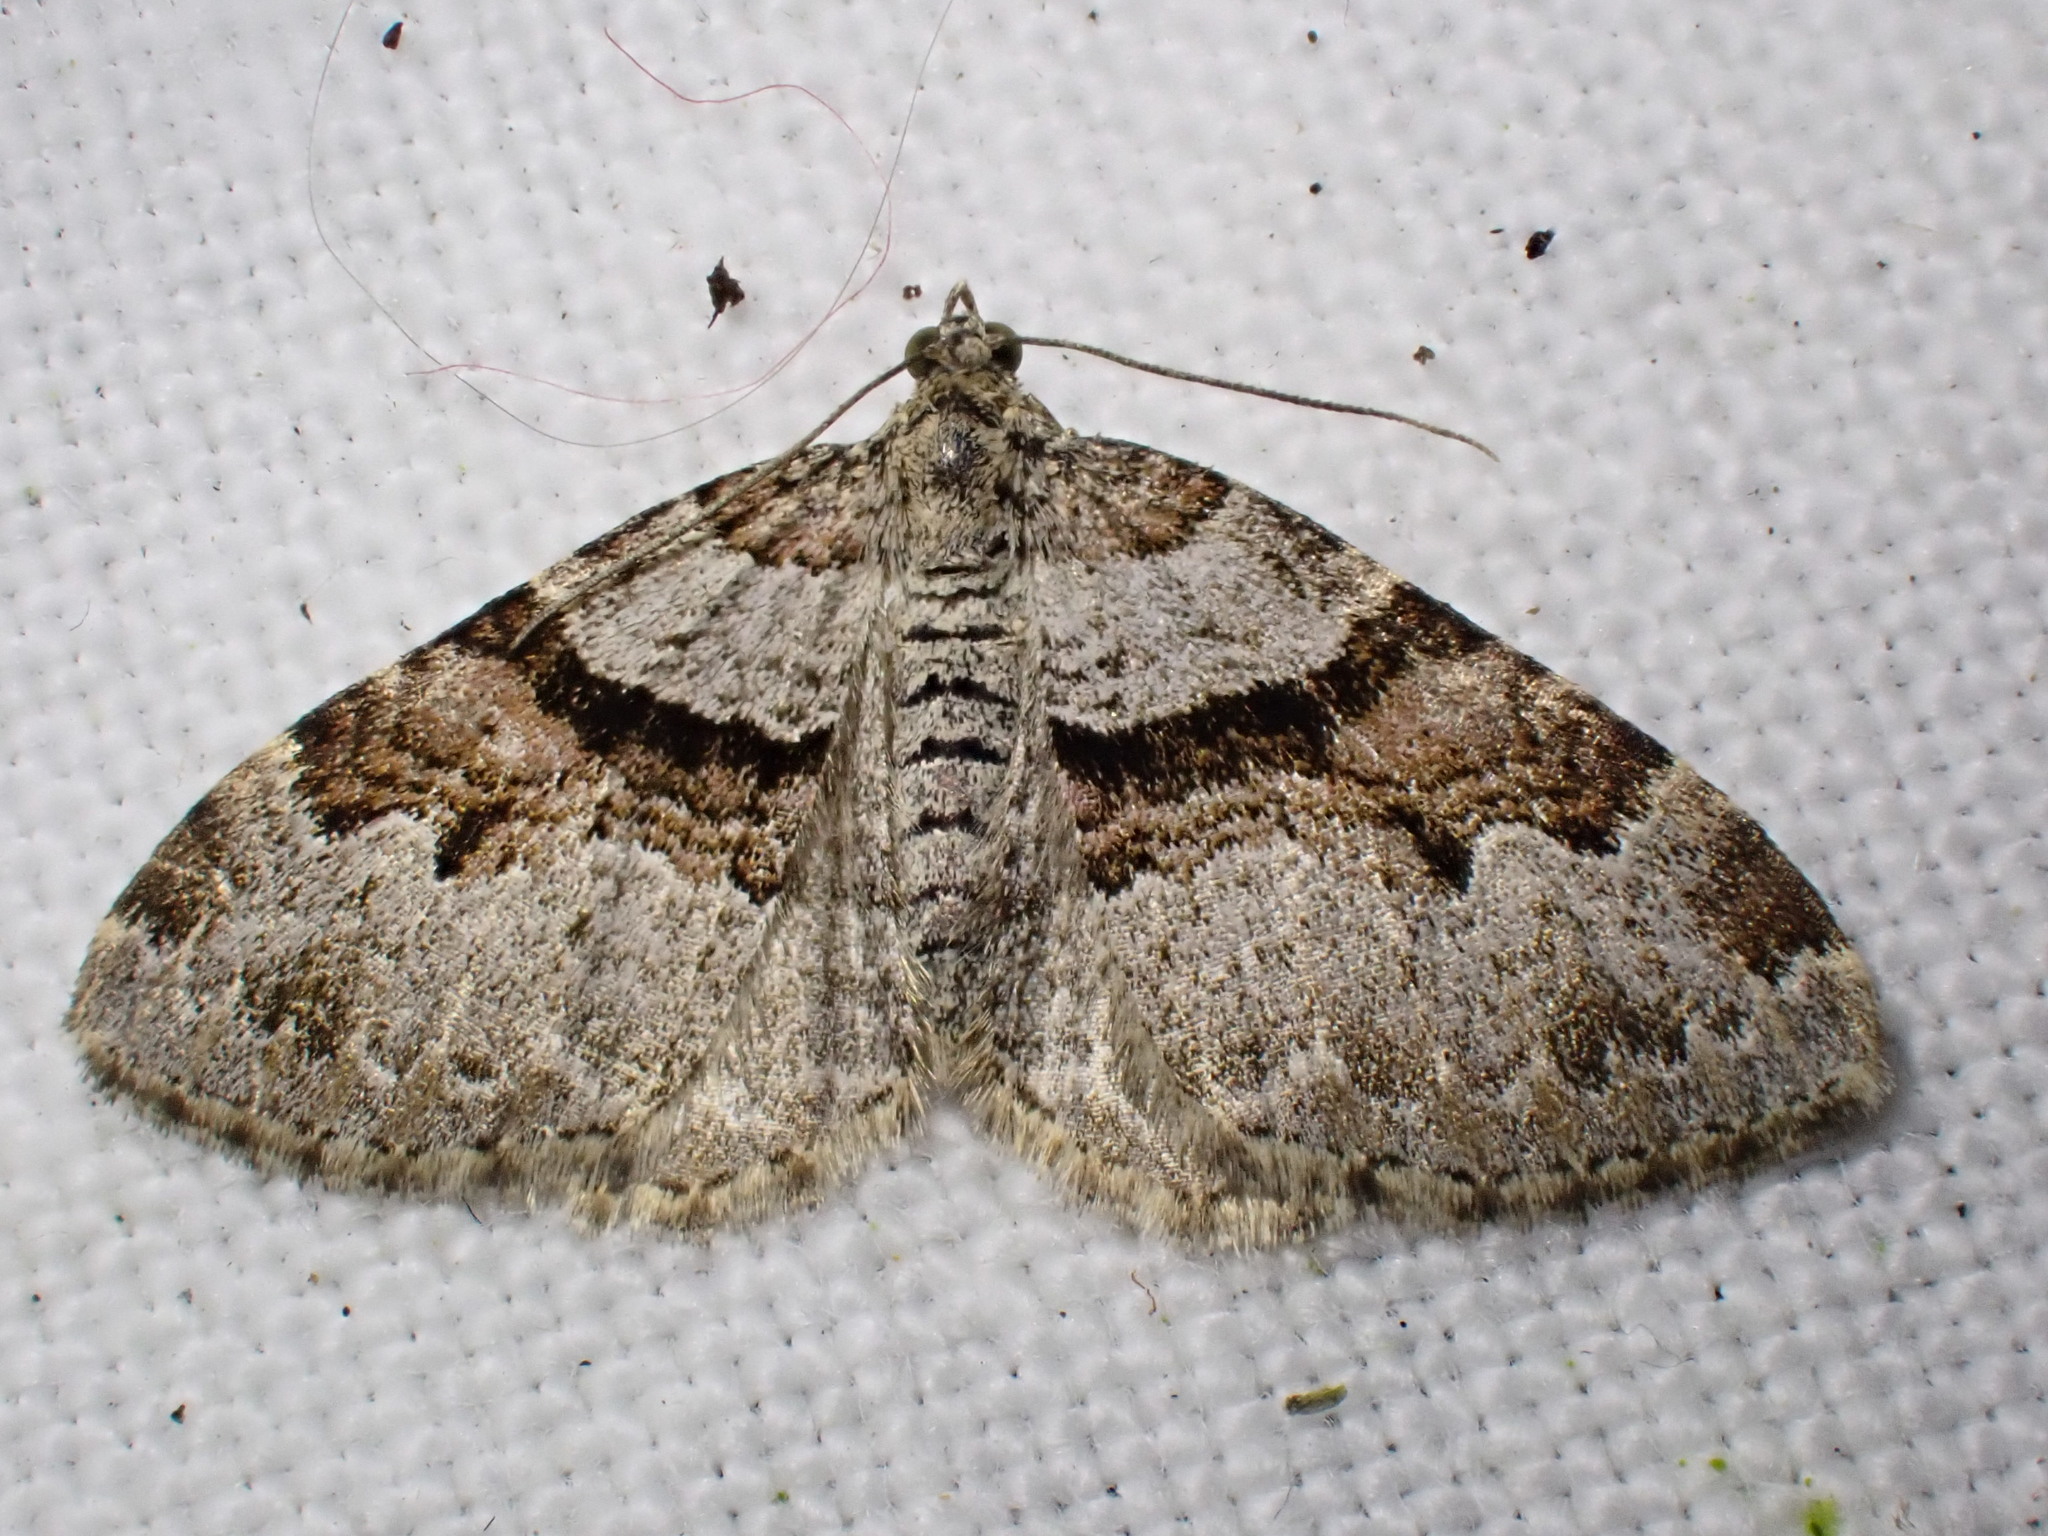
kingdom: Animalia
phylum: Arthropoda
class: Insecta
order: Lepidoptera
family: Geometridae
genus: Xanthorhoe
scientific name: Xanthorhoe designata
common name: Flame carpet
